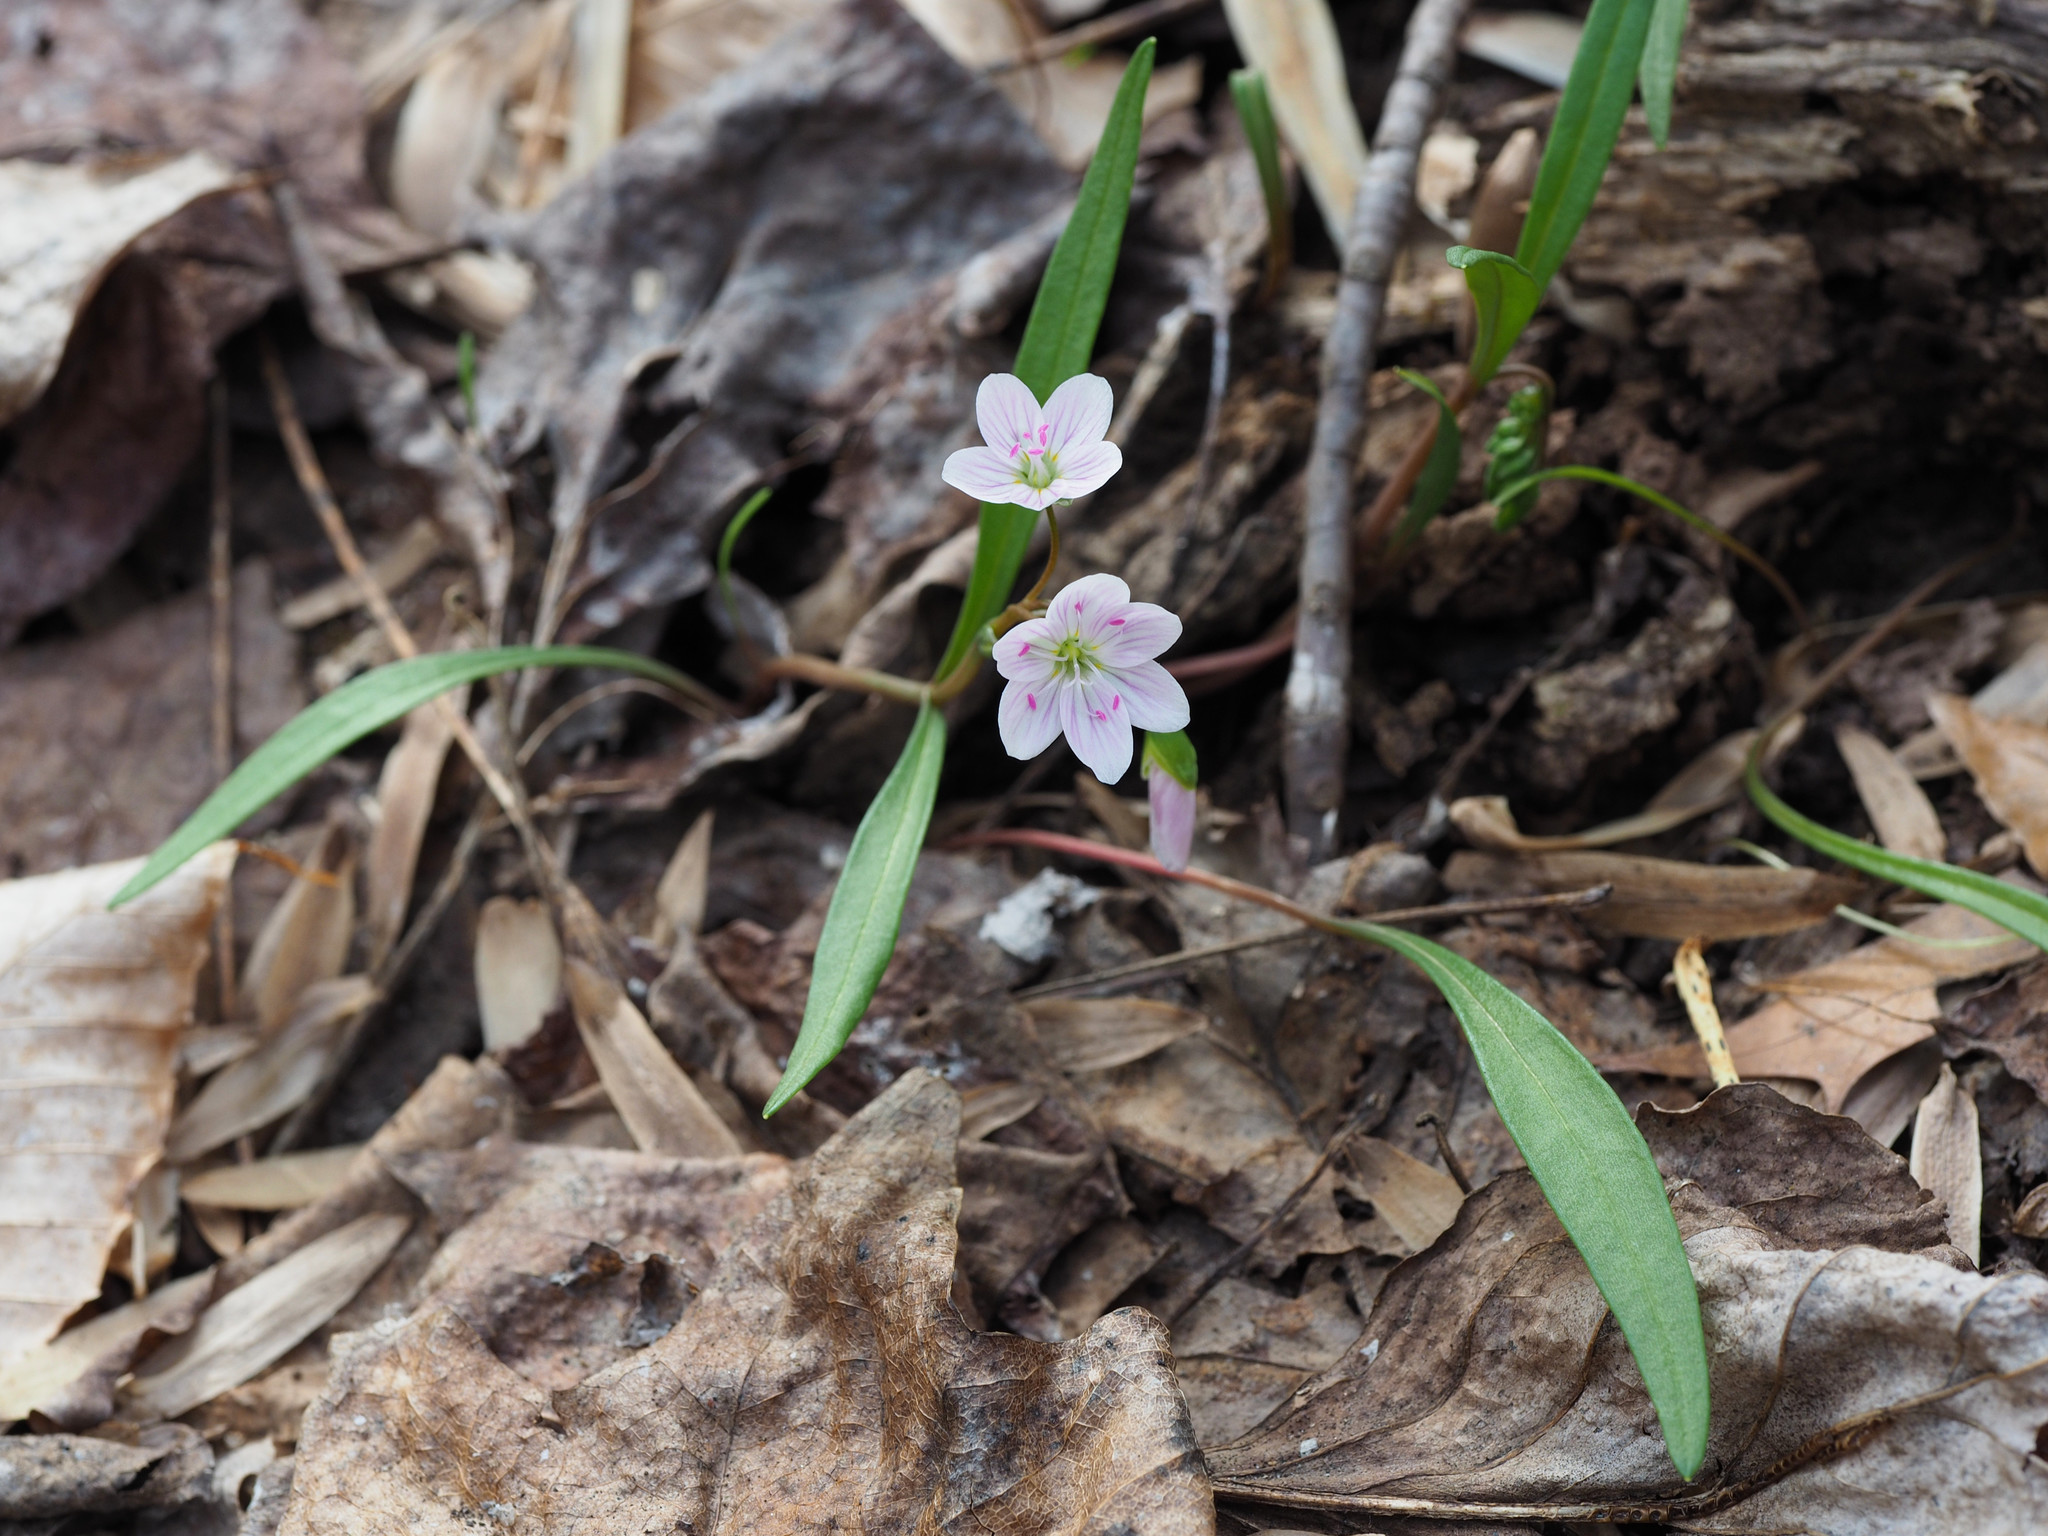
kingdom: Plantae
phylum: Tracheophyta
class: Magnoliopsida
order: Caryophyllales
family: Montiaceae
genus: Claytonia
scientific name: Claytonia virginica
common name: Virginia springbeauty
